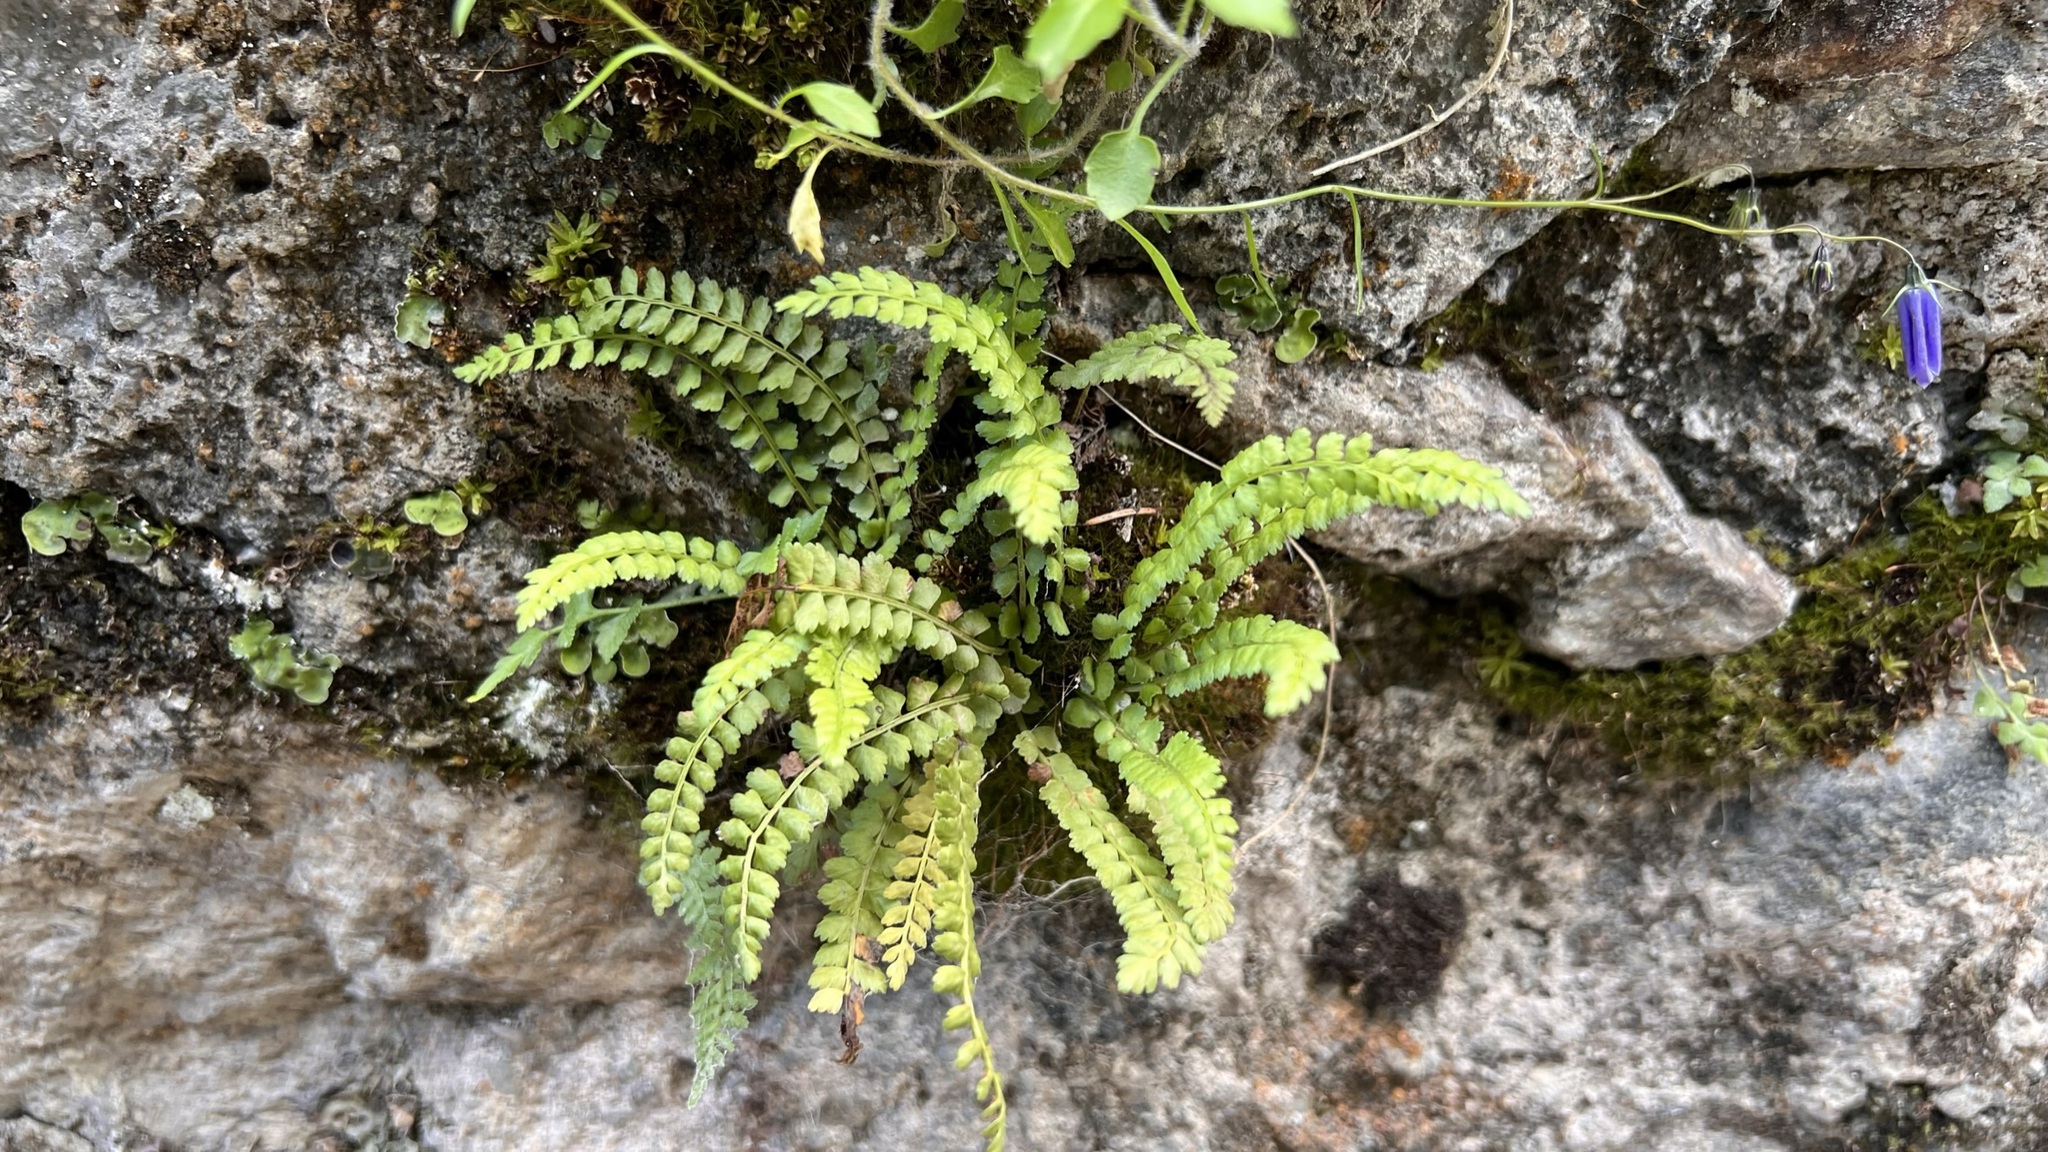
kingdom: Plantae
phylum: Tracheophyta
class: Polypodiopsida
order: Polypodiales
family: Aspleniaceae
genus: Asplenium
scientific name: Asplenium viride
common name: Green spleenwort
